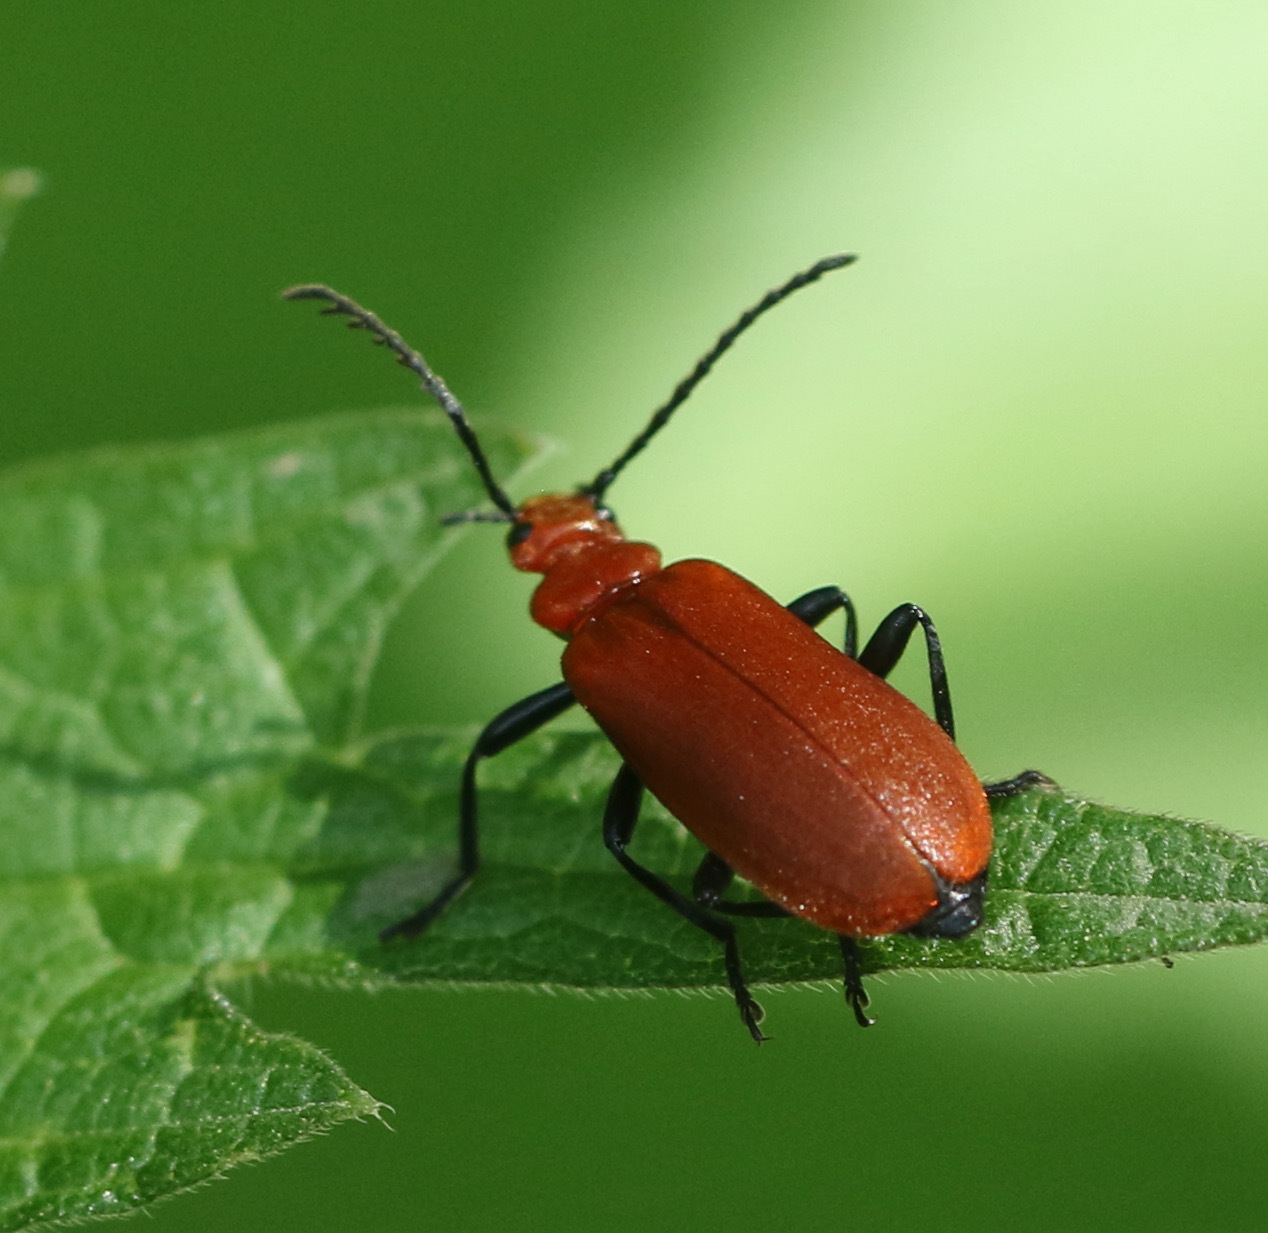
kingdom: Animalia
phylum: Arthropoda
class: Insecta
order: Coleoptera
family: Pyrochroidae
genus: Pyrochroa
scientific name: Pyrochroa serraticornis
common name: Red-headed cardinal beetle
